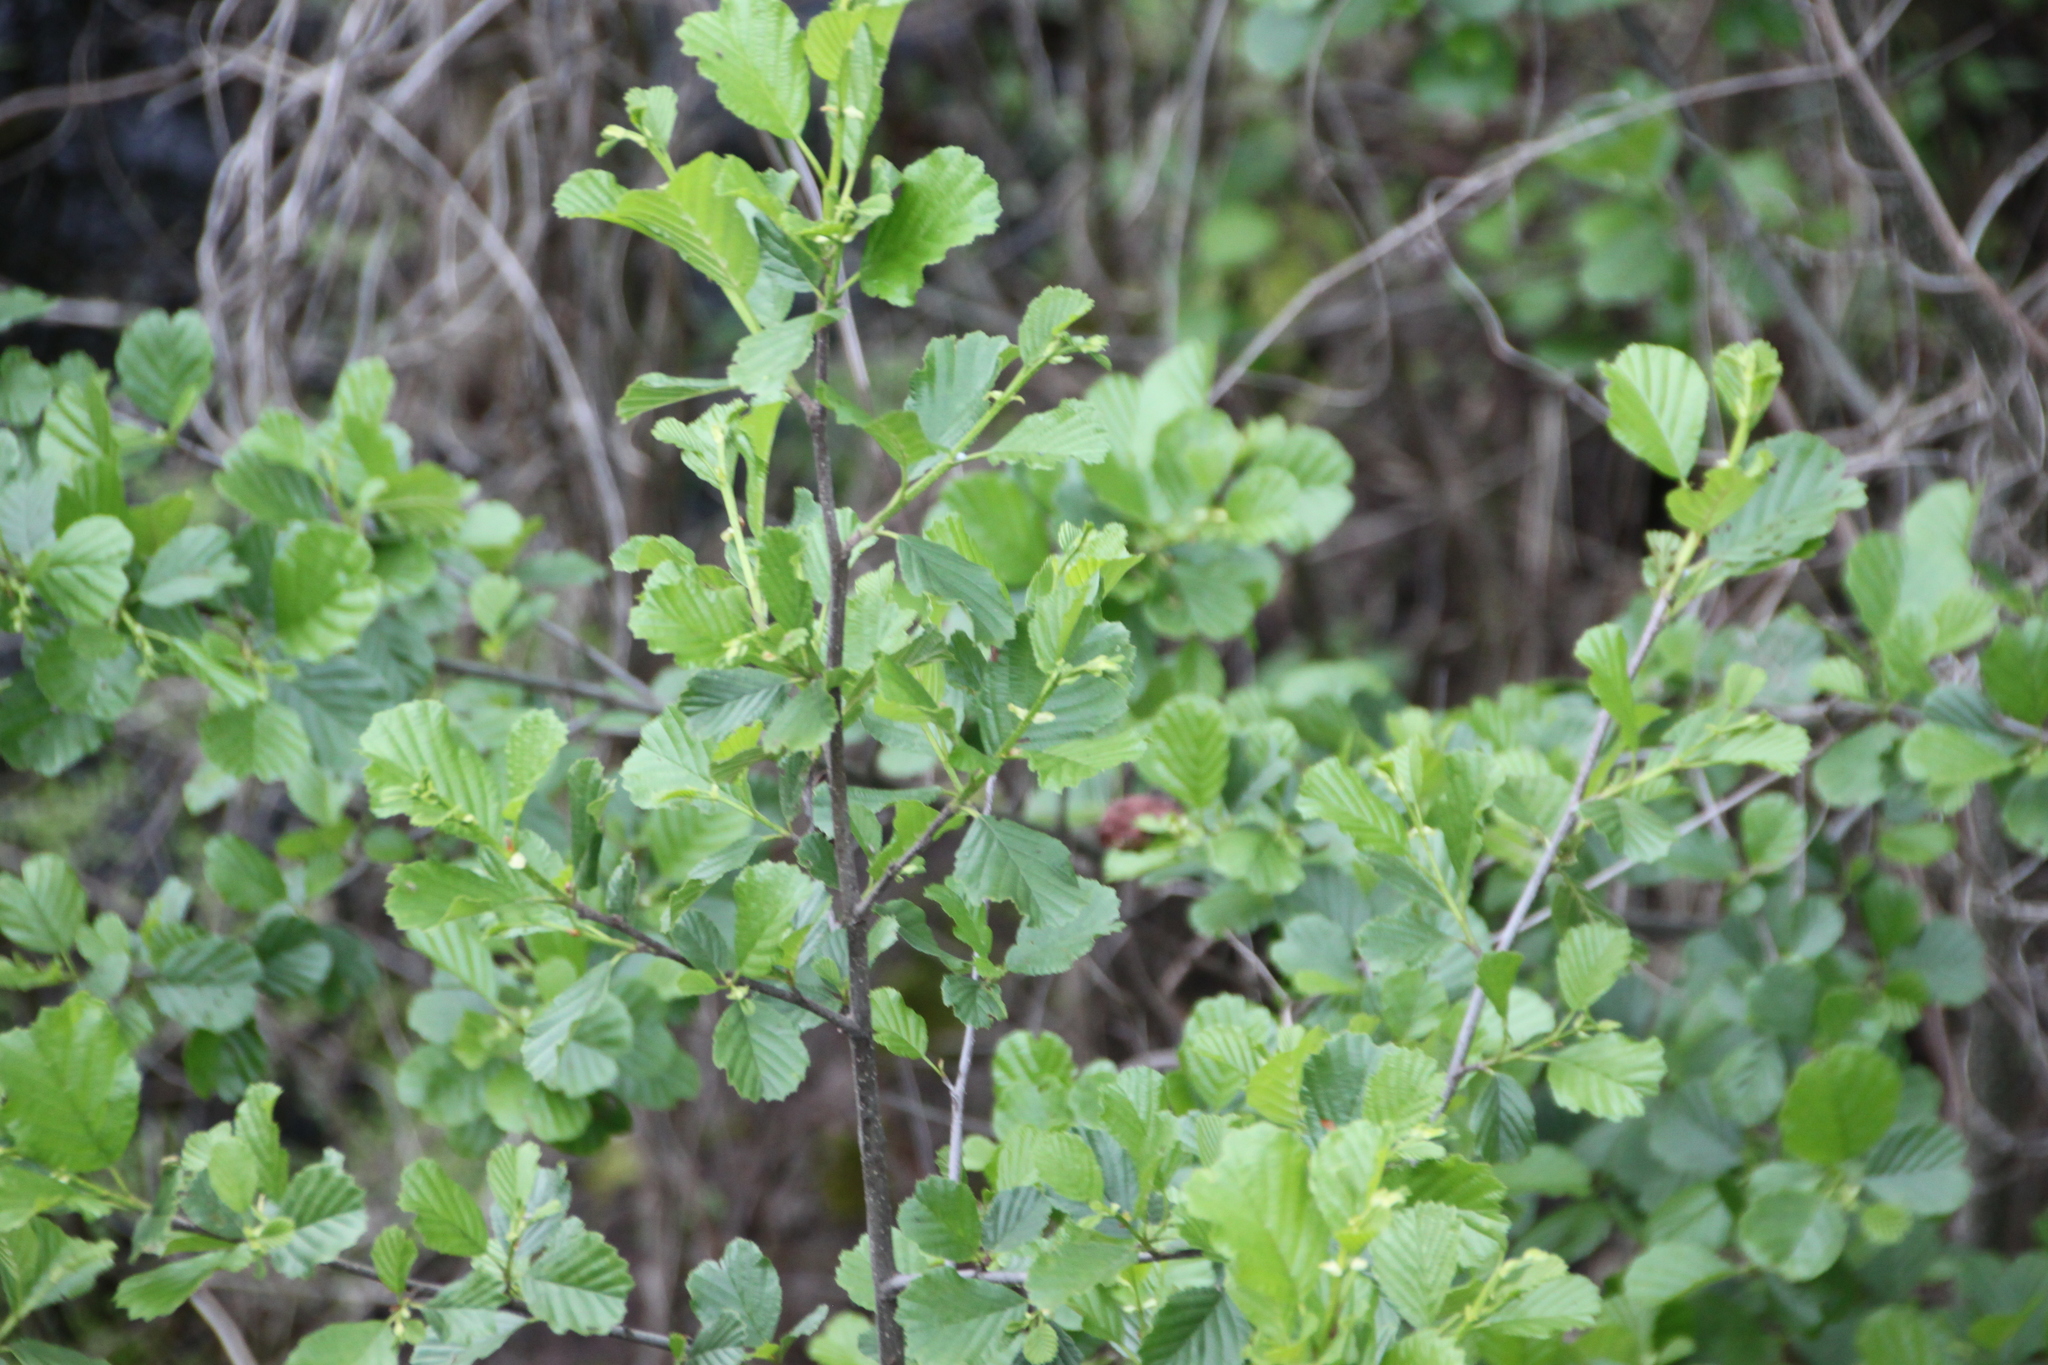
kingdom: Plantae
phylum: Tracheophyta
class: Magnoliopsida
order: Fagales
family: Betulaceae
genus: Alnus
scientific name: Alnus glutinosa
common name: Black alder
